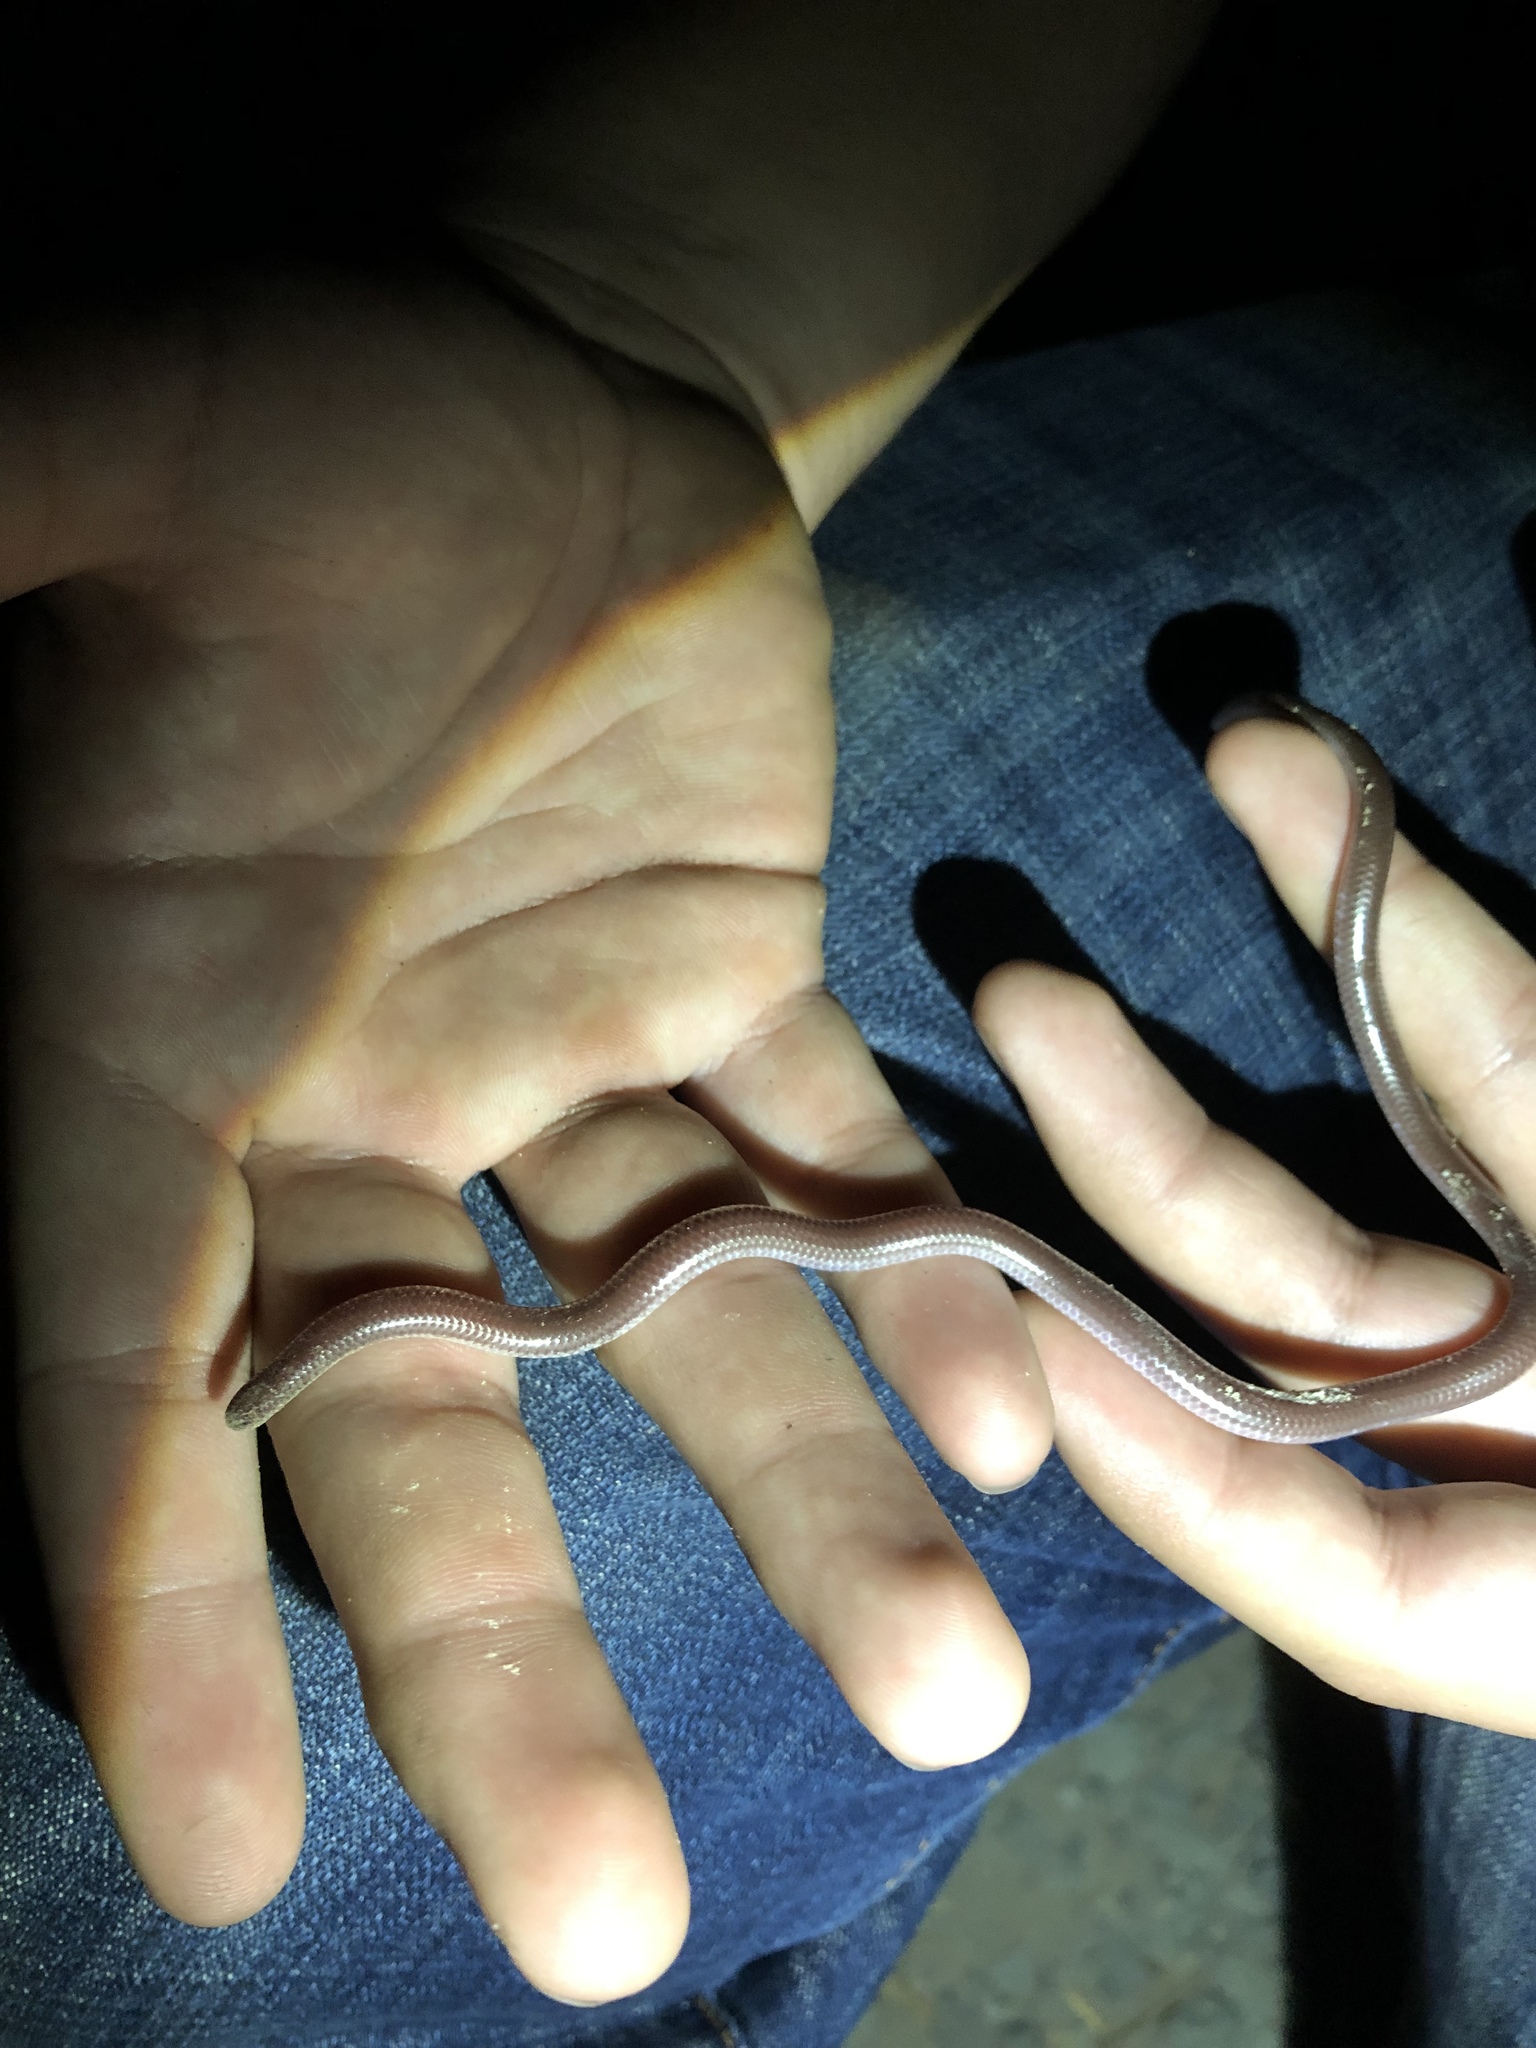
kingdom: Animalia
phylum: Chordata
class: Squamata
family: Leptotyphlopidae
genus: Rena
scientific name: Rena humilis
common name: Western threadsnake
